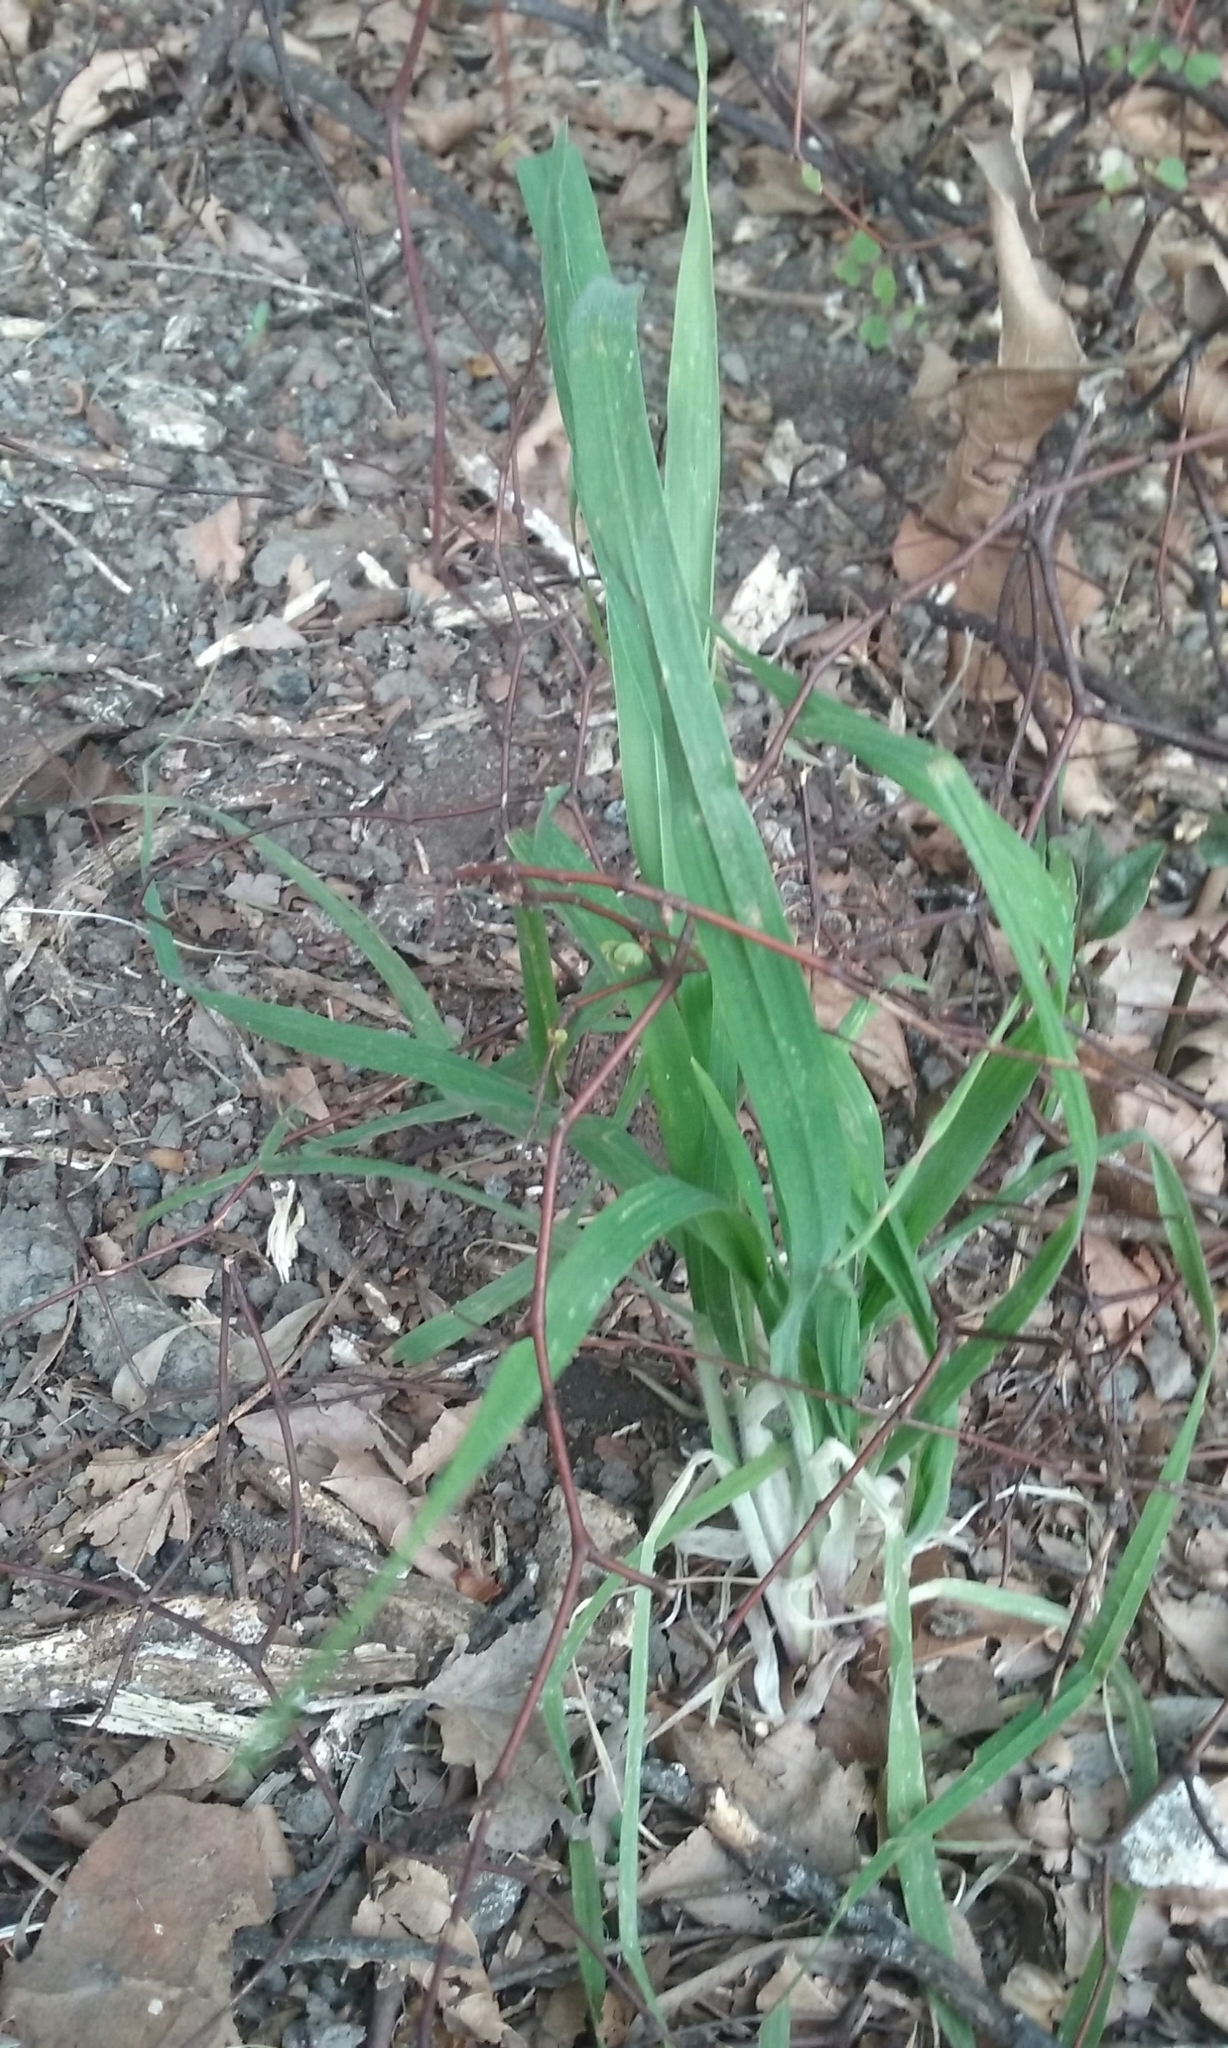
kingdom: Plantae
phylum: Tracheophyta
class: Liliopsida
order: Poales
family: Poaceae
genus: Bromus
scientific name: Bromus catharticus
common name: Rescuegrass
